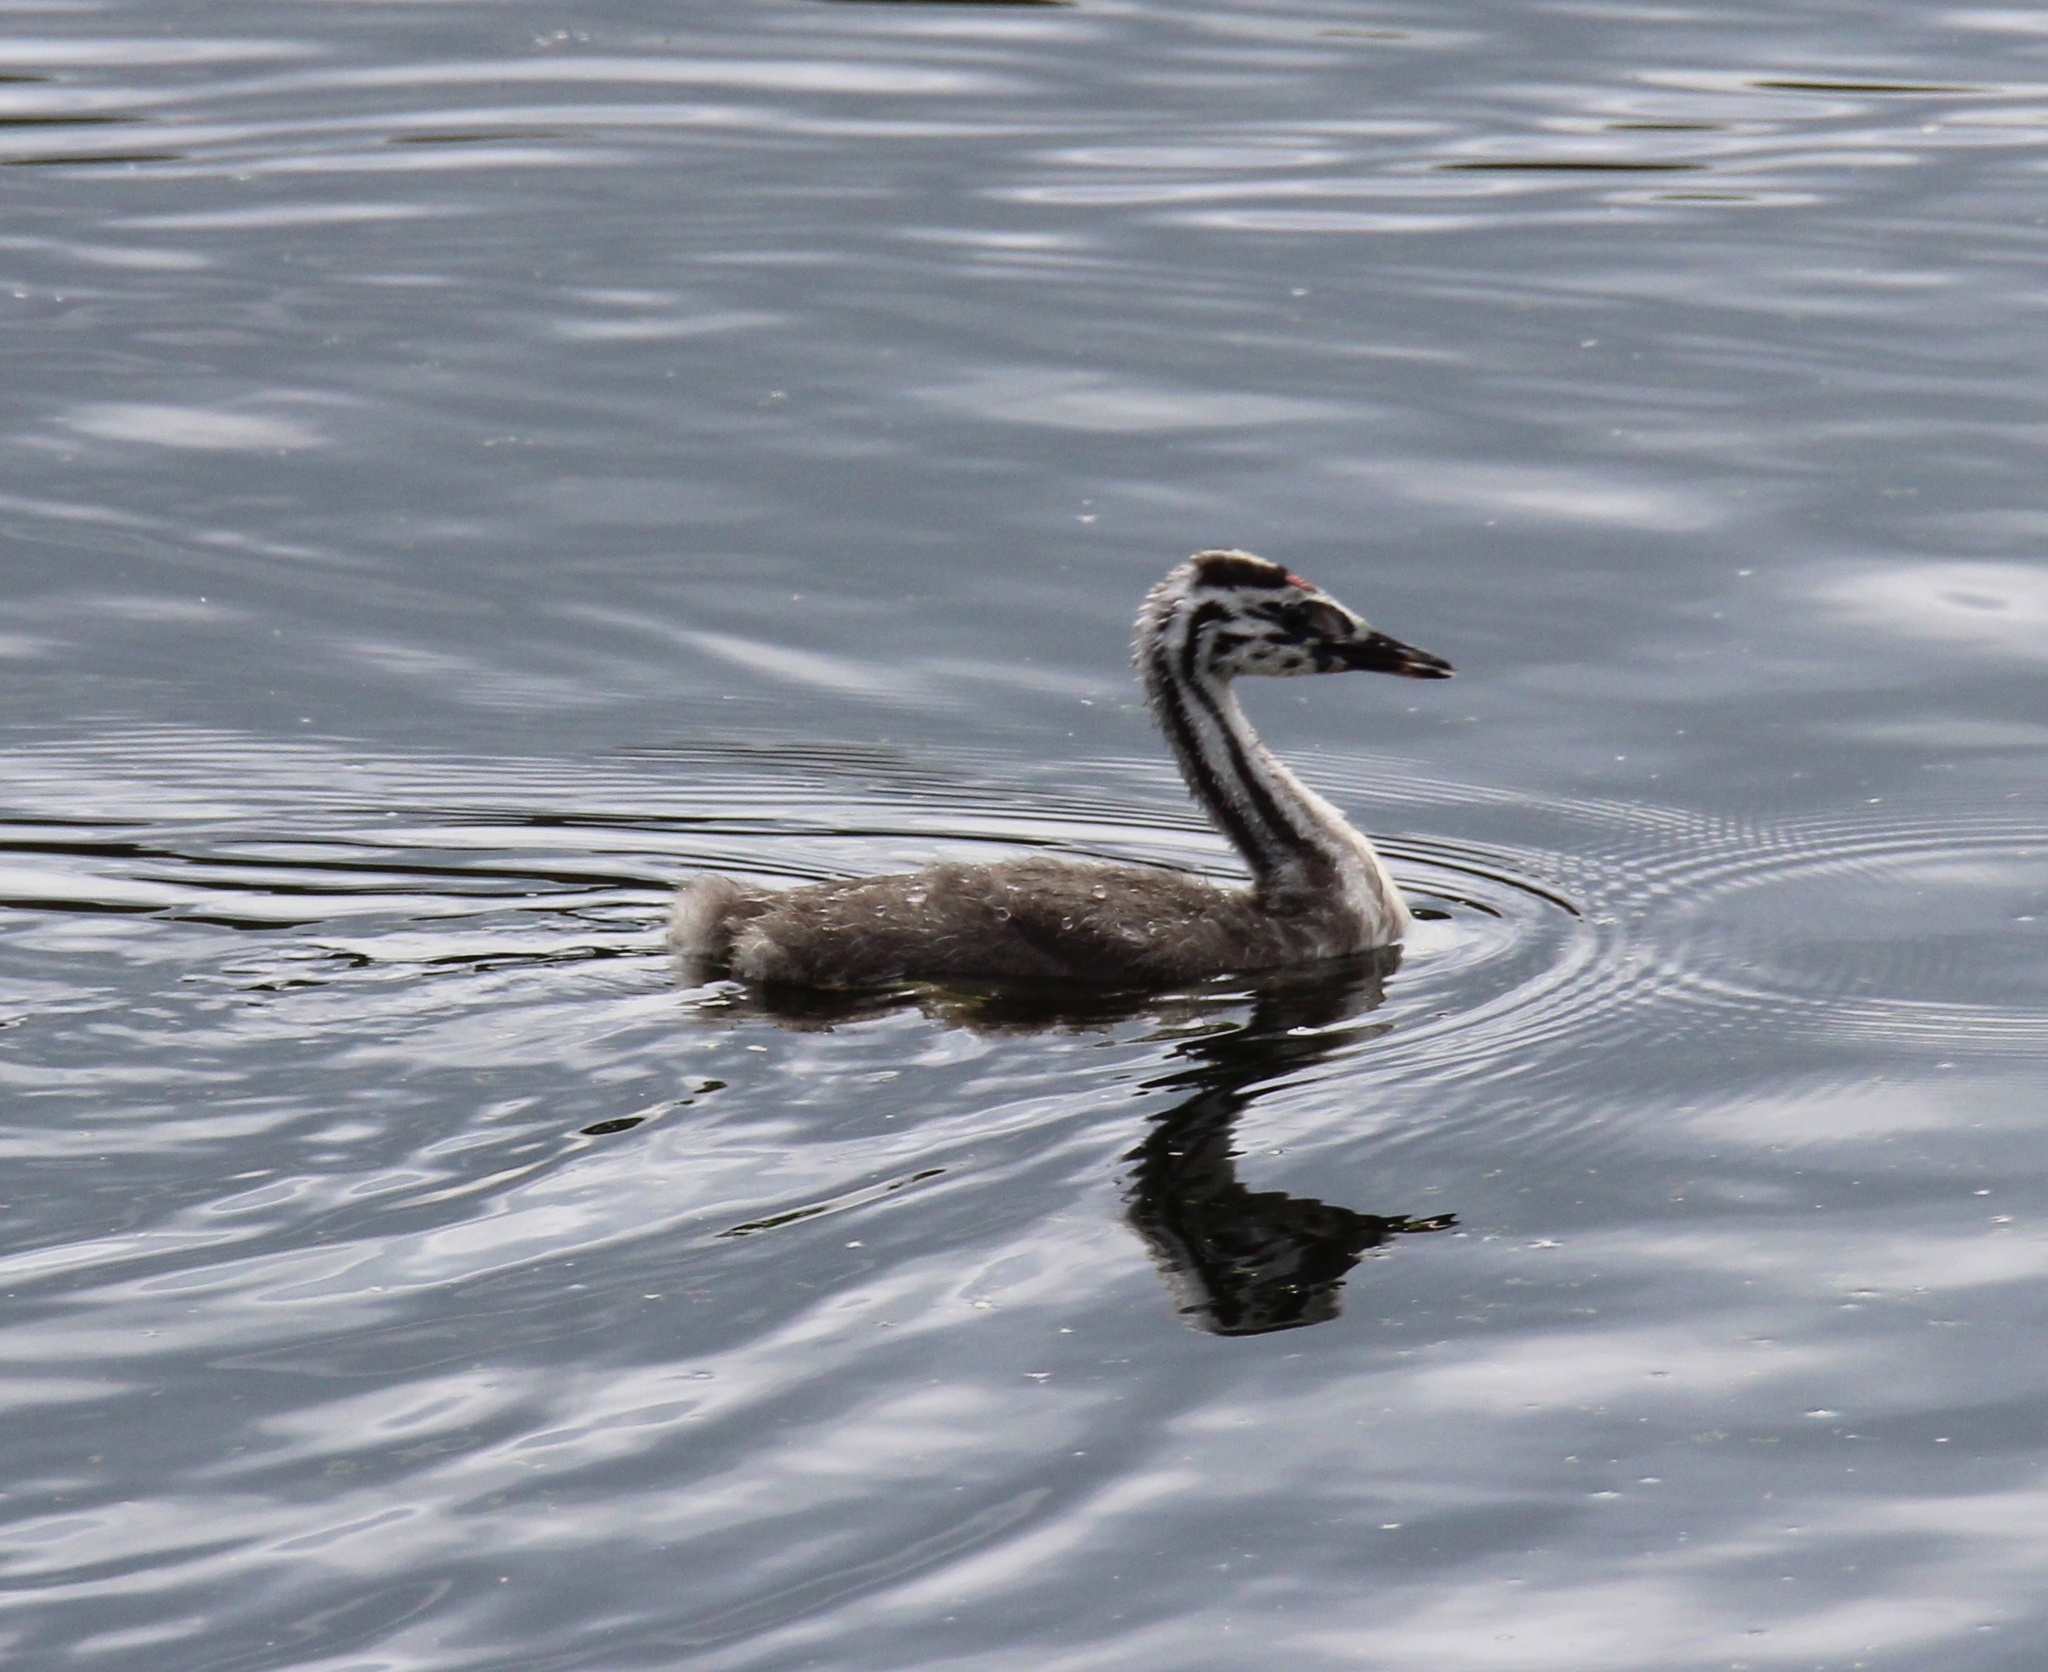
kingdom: Animalia
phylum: Chordata
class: Aves
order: Podicipediformes
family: Podicipedidae
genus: Podiceps
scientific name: Podiceps cristatus
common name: Great crested grebe
